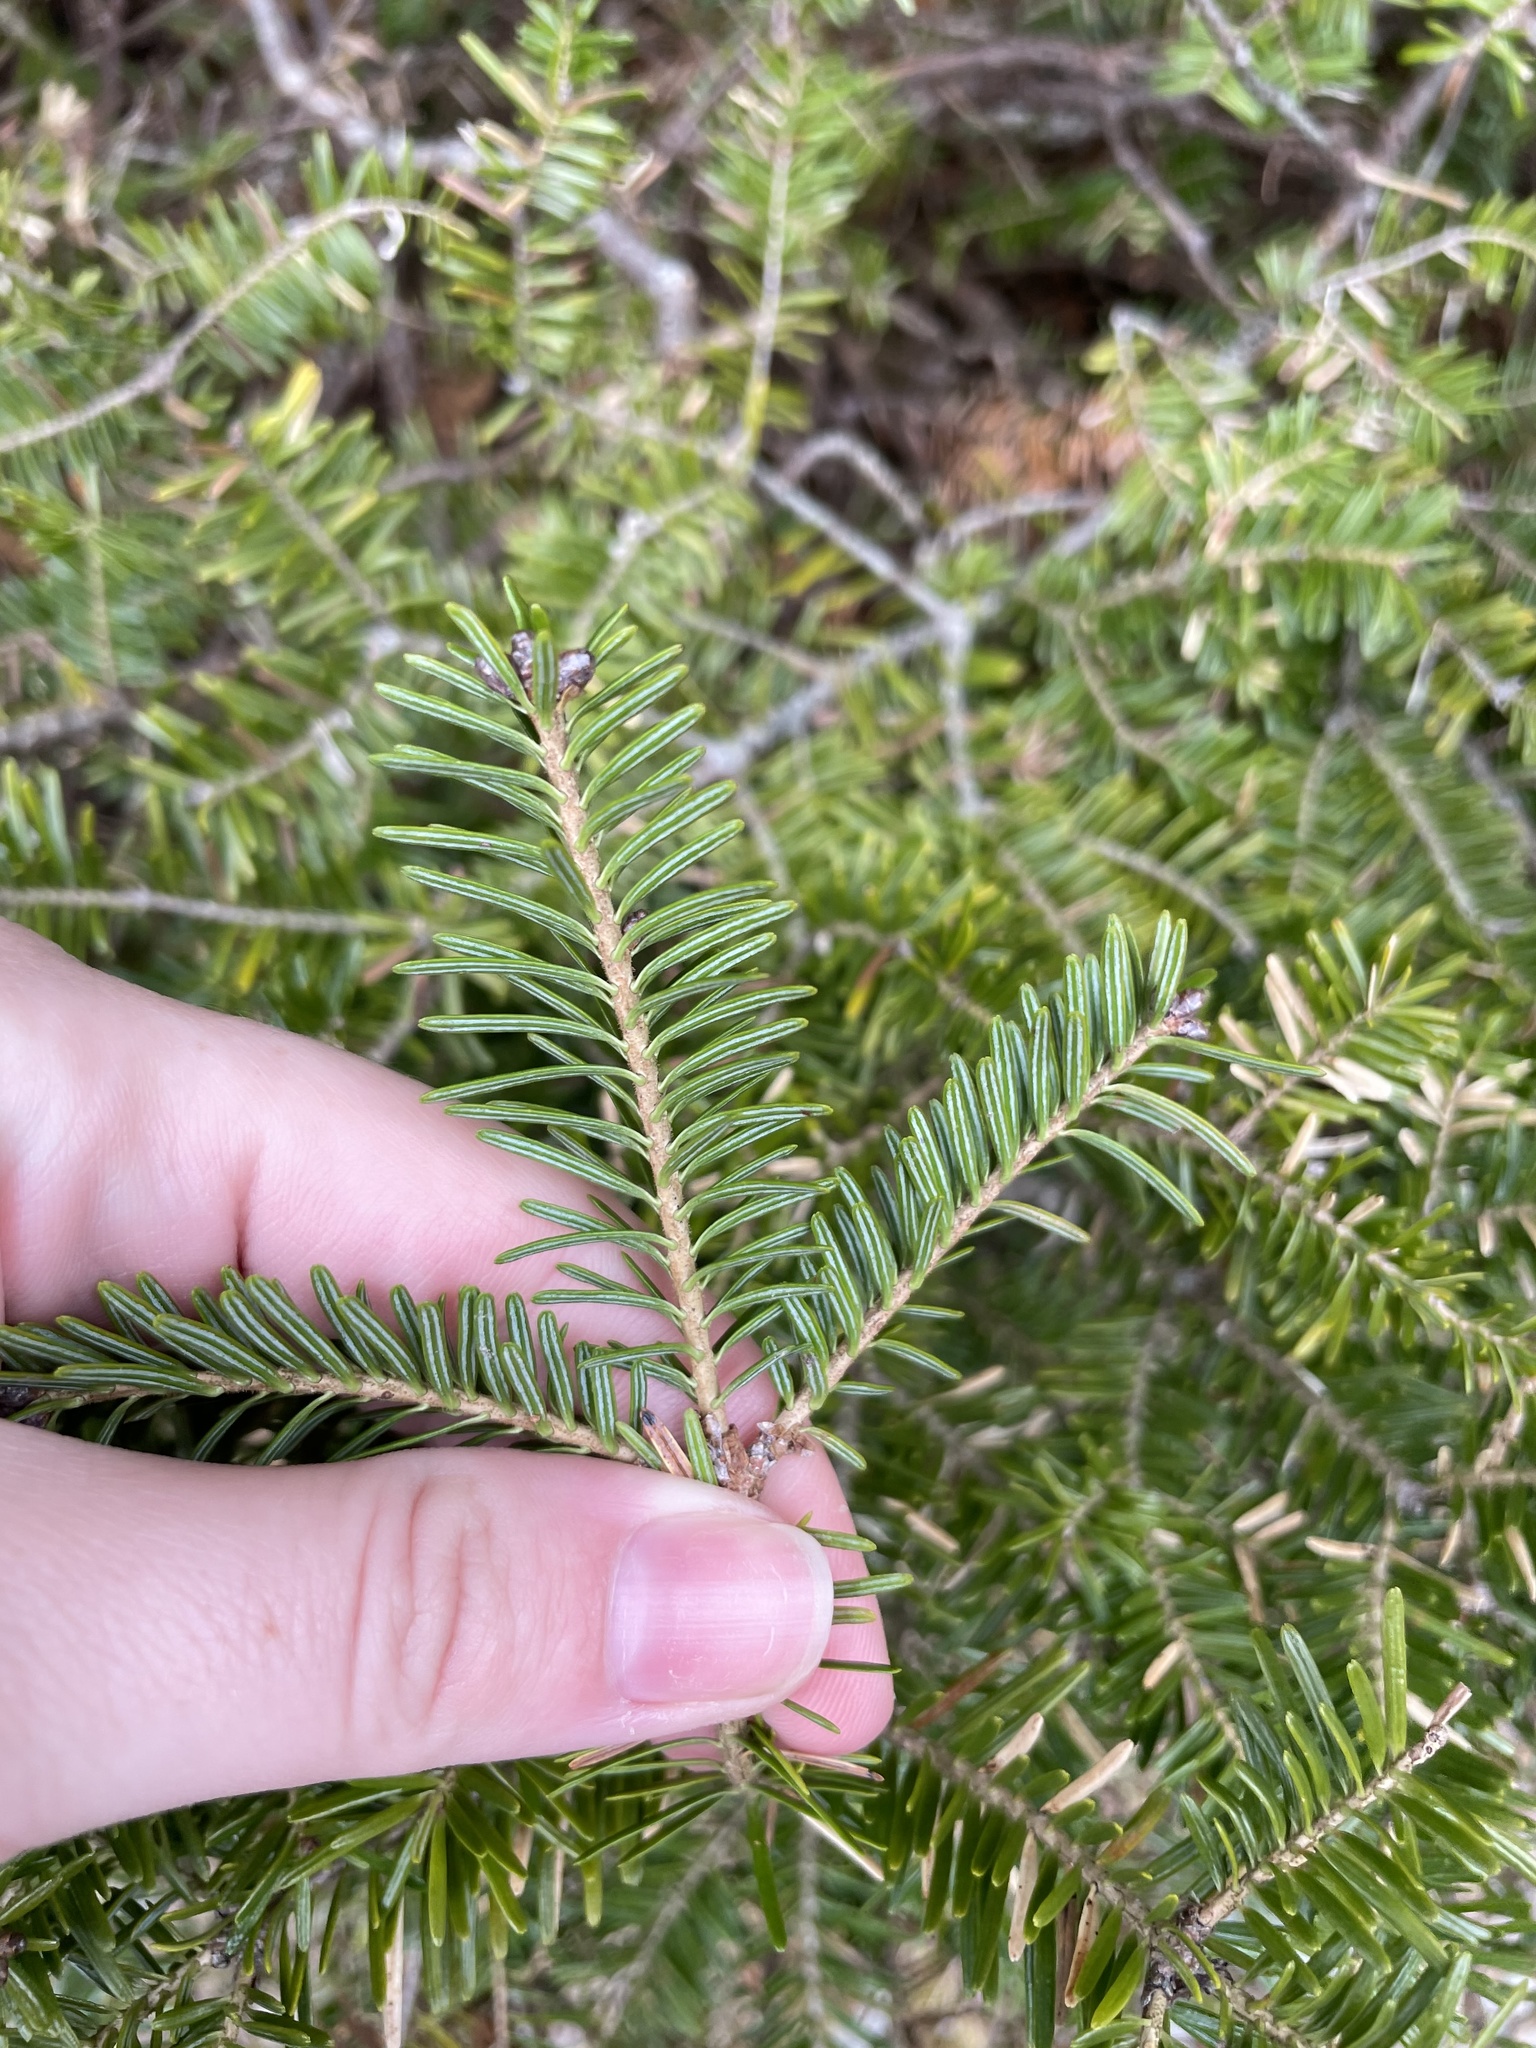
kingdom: Plantae
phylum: Tracheophyta
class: Pinopsida
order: Pinales
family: Pinaceae
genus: Abies
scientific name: Abies balsamea
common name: Balsam fir
